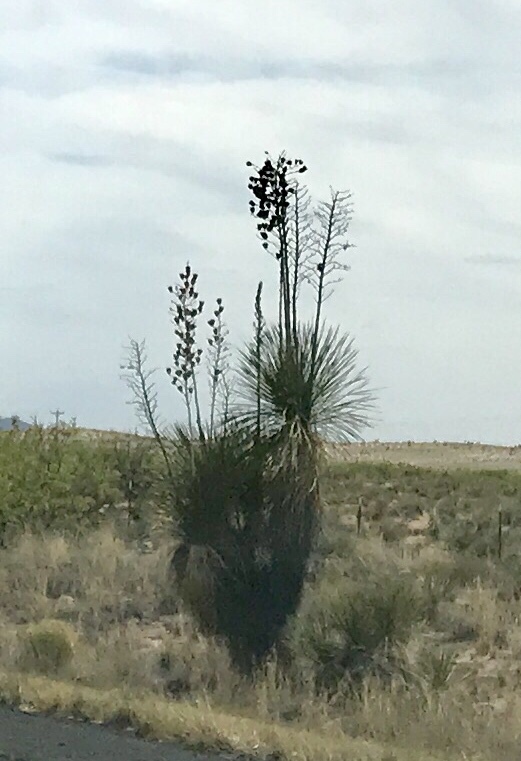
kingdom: Plantae
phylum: Tracheophyta
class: Liliopsida
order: Asparagales
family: Asparagaceae
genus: Yucca
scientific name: Yucca elata
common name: Palmella
